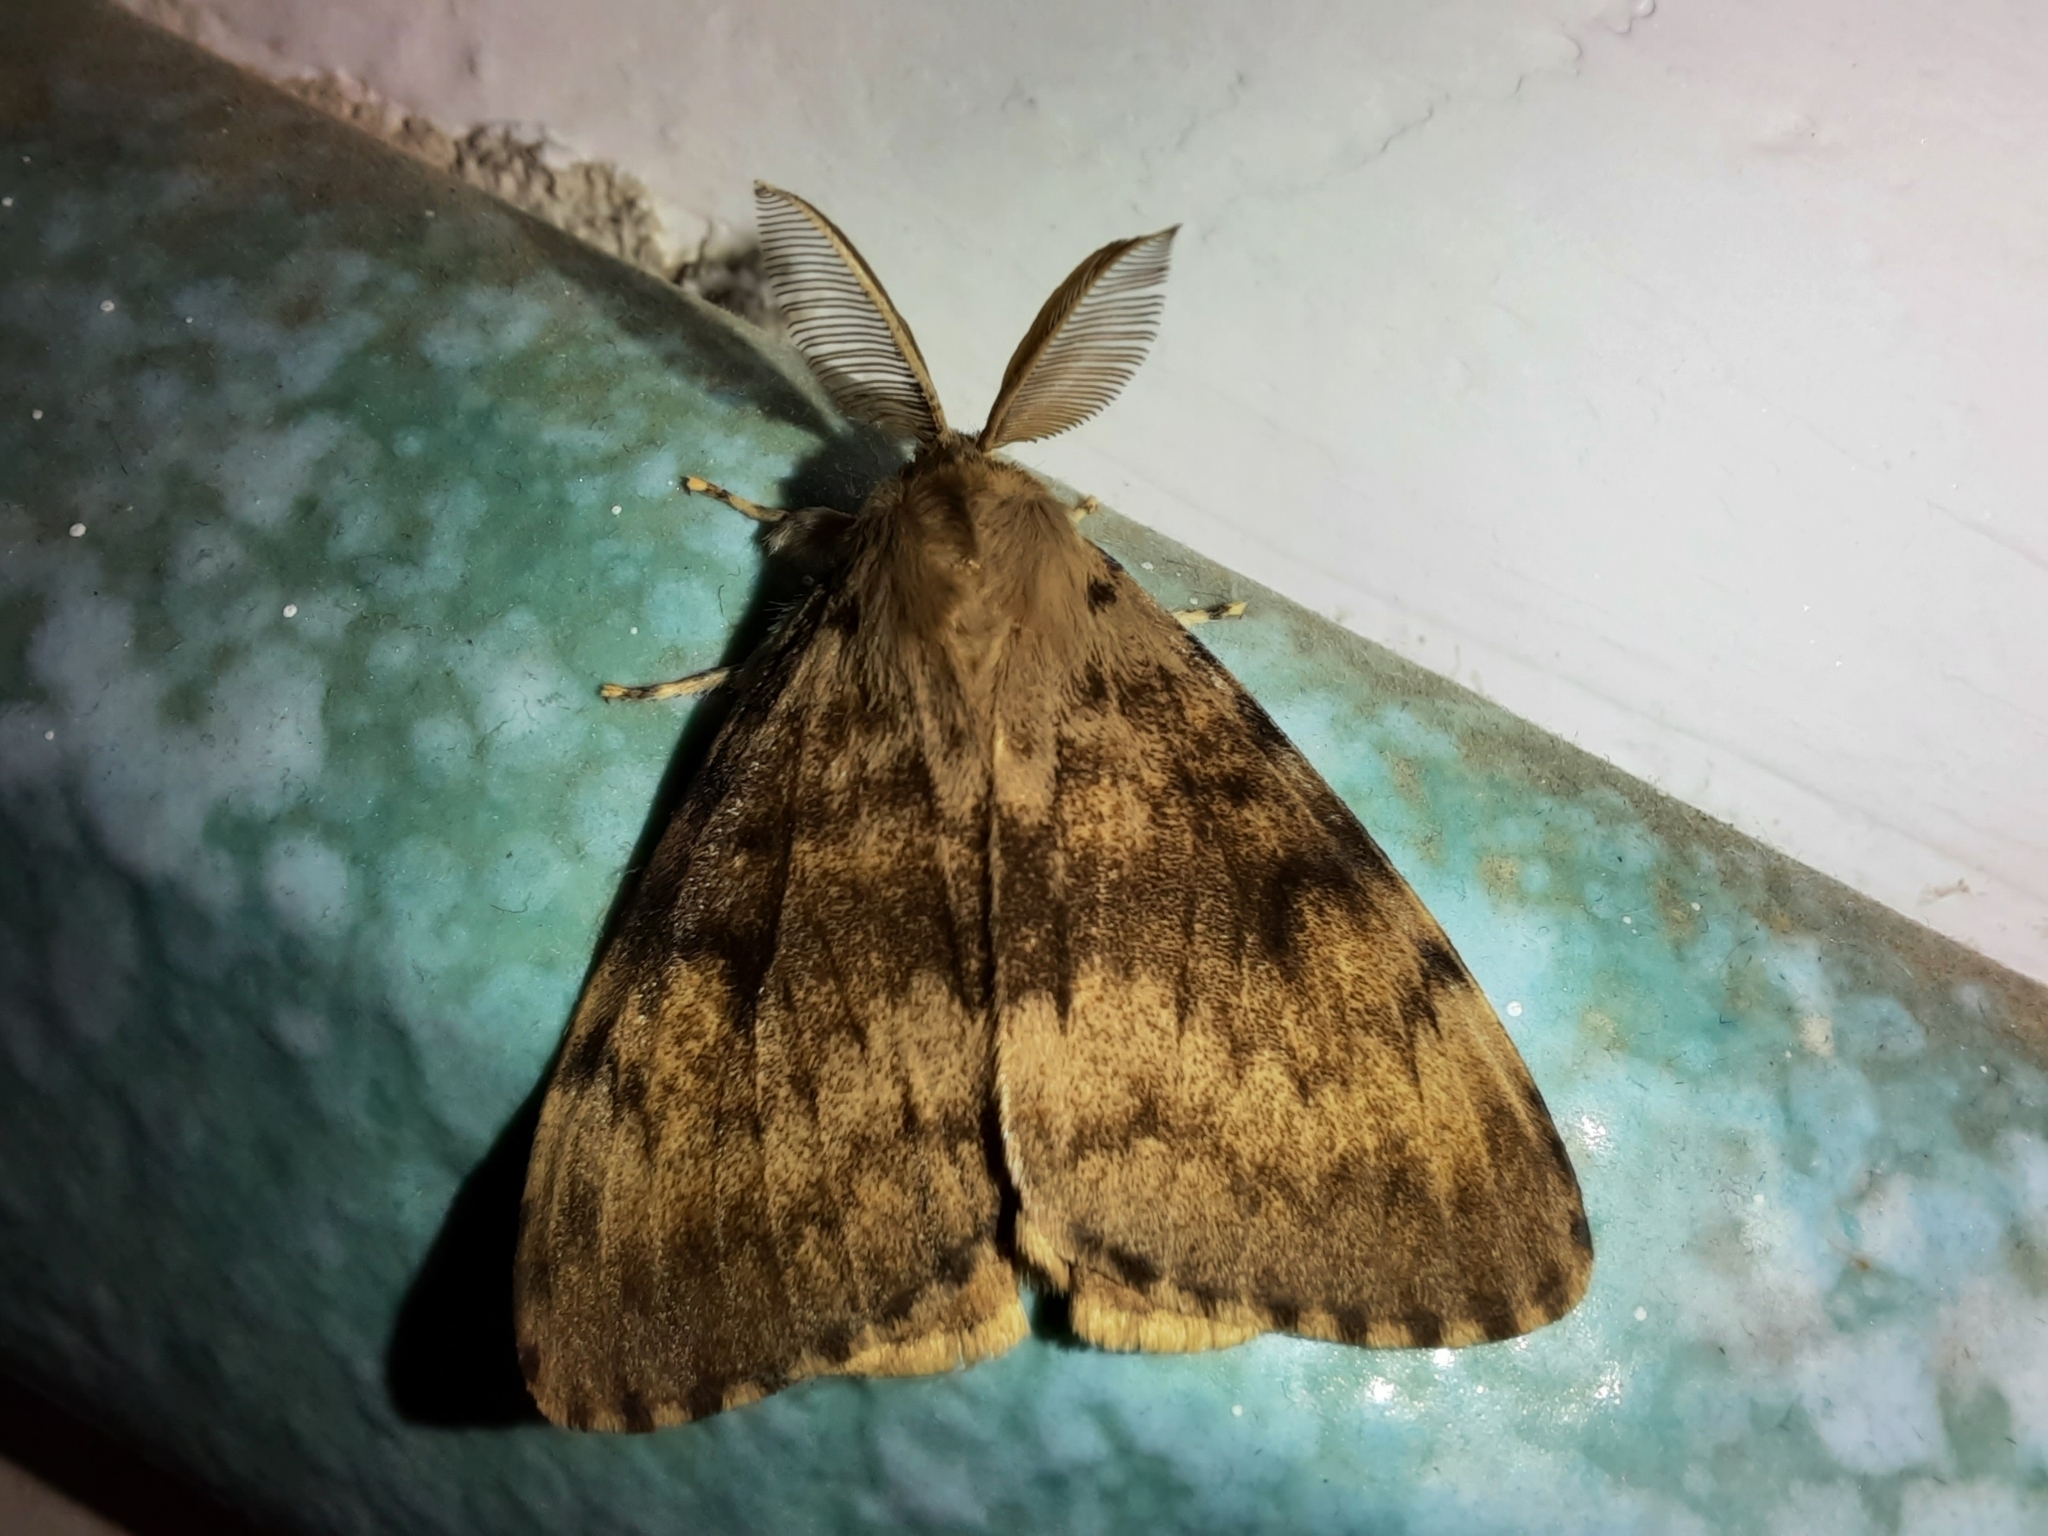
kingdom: Animalia
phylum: Arthropoda
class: Insecta
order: Lepidoptera
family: Erebidae
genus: Lymantria
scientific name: Lymantria dispar
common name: Gypsy moth
